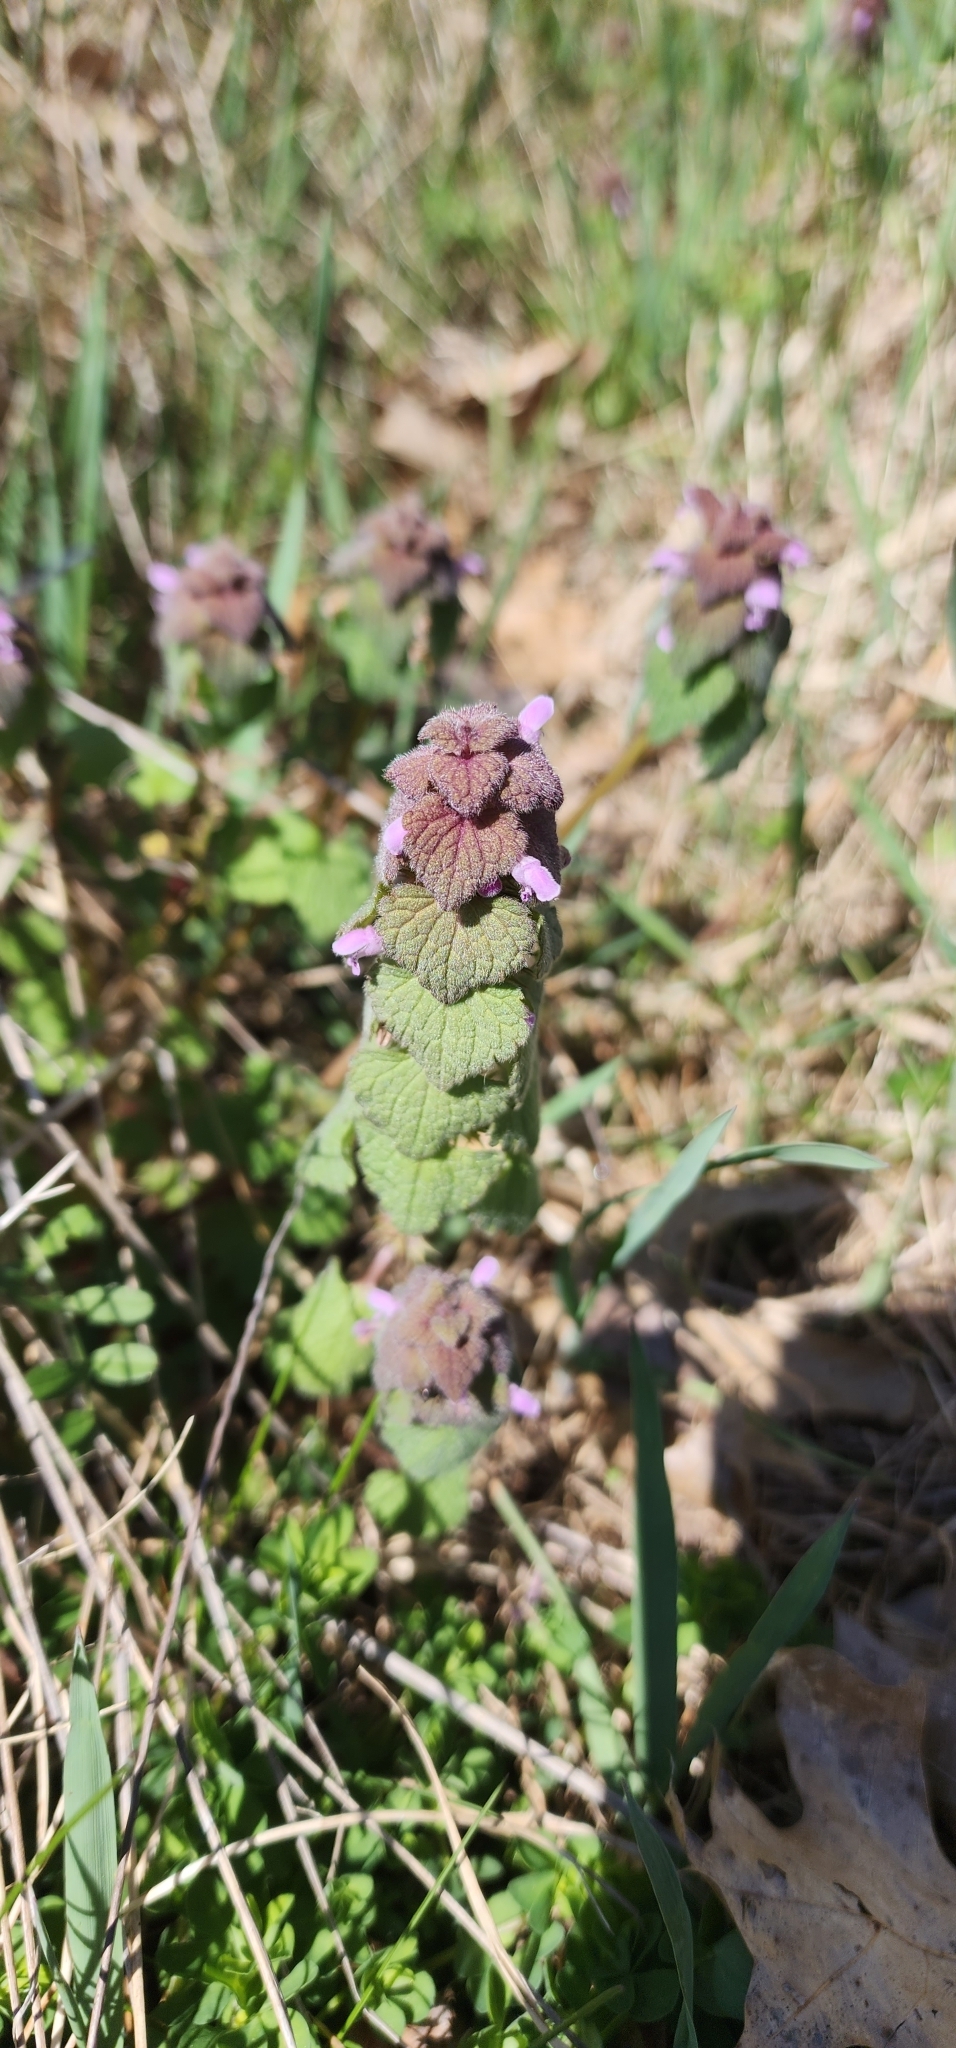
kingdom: Plantae
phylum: Tracheophyta
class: Magnoliopsida
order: Lamiales
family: Lamiaceae
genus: Lamium
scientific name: Lamium purpureum
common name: Red dead-nettle
